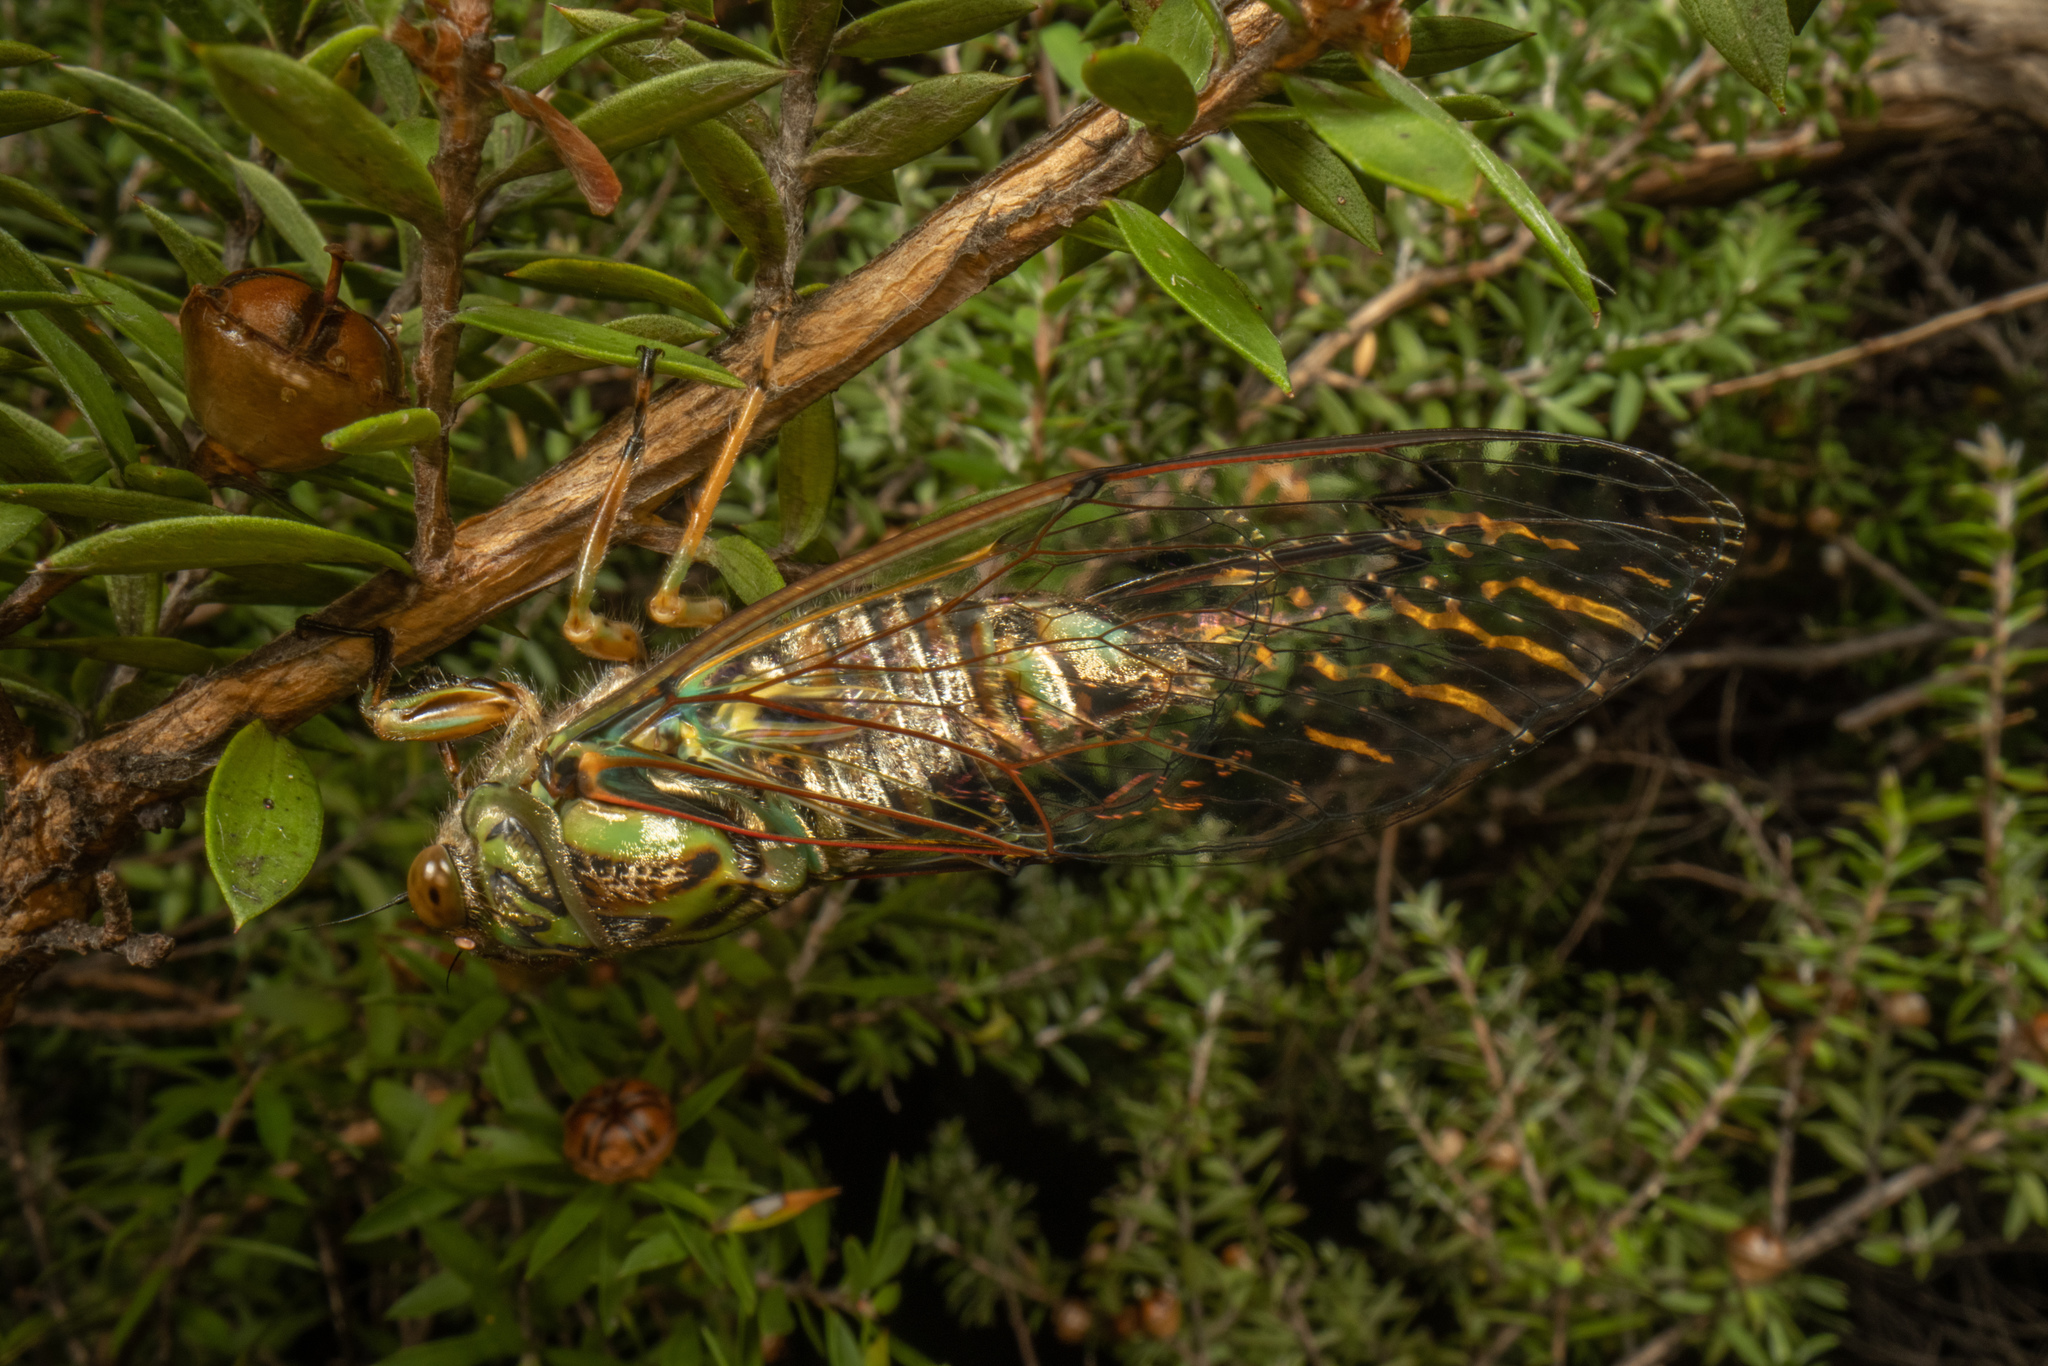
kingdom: Animalia
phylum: Arthropoda
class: Insecta
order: Hemiptera
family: Cicadidae
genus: Amphipsalta
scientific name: Amphipsalta zelandica
